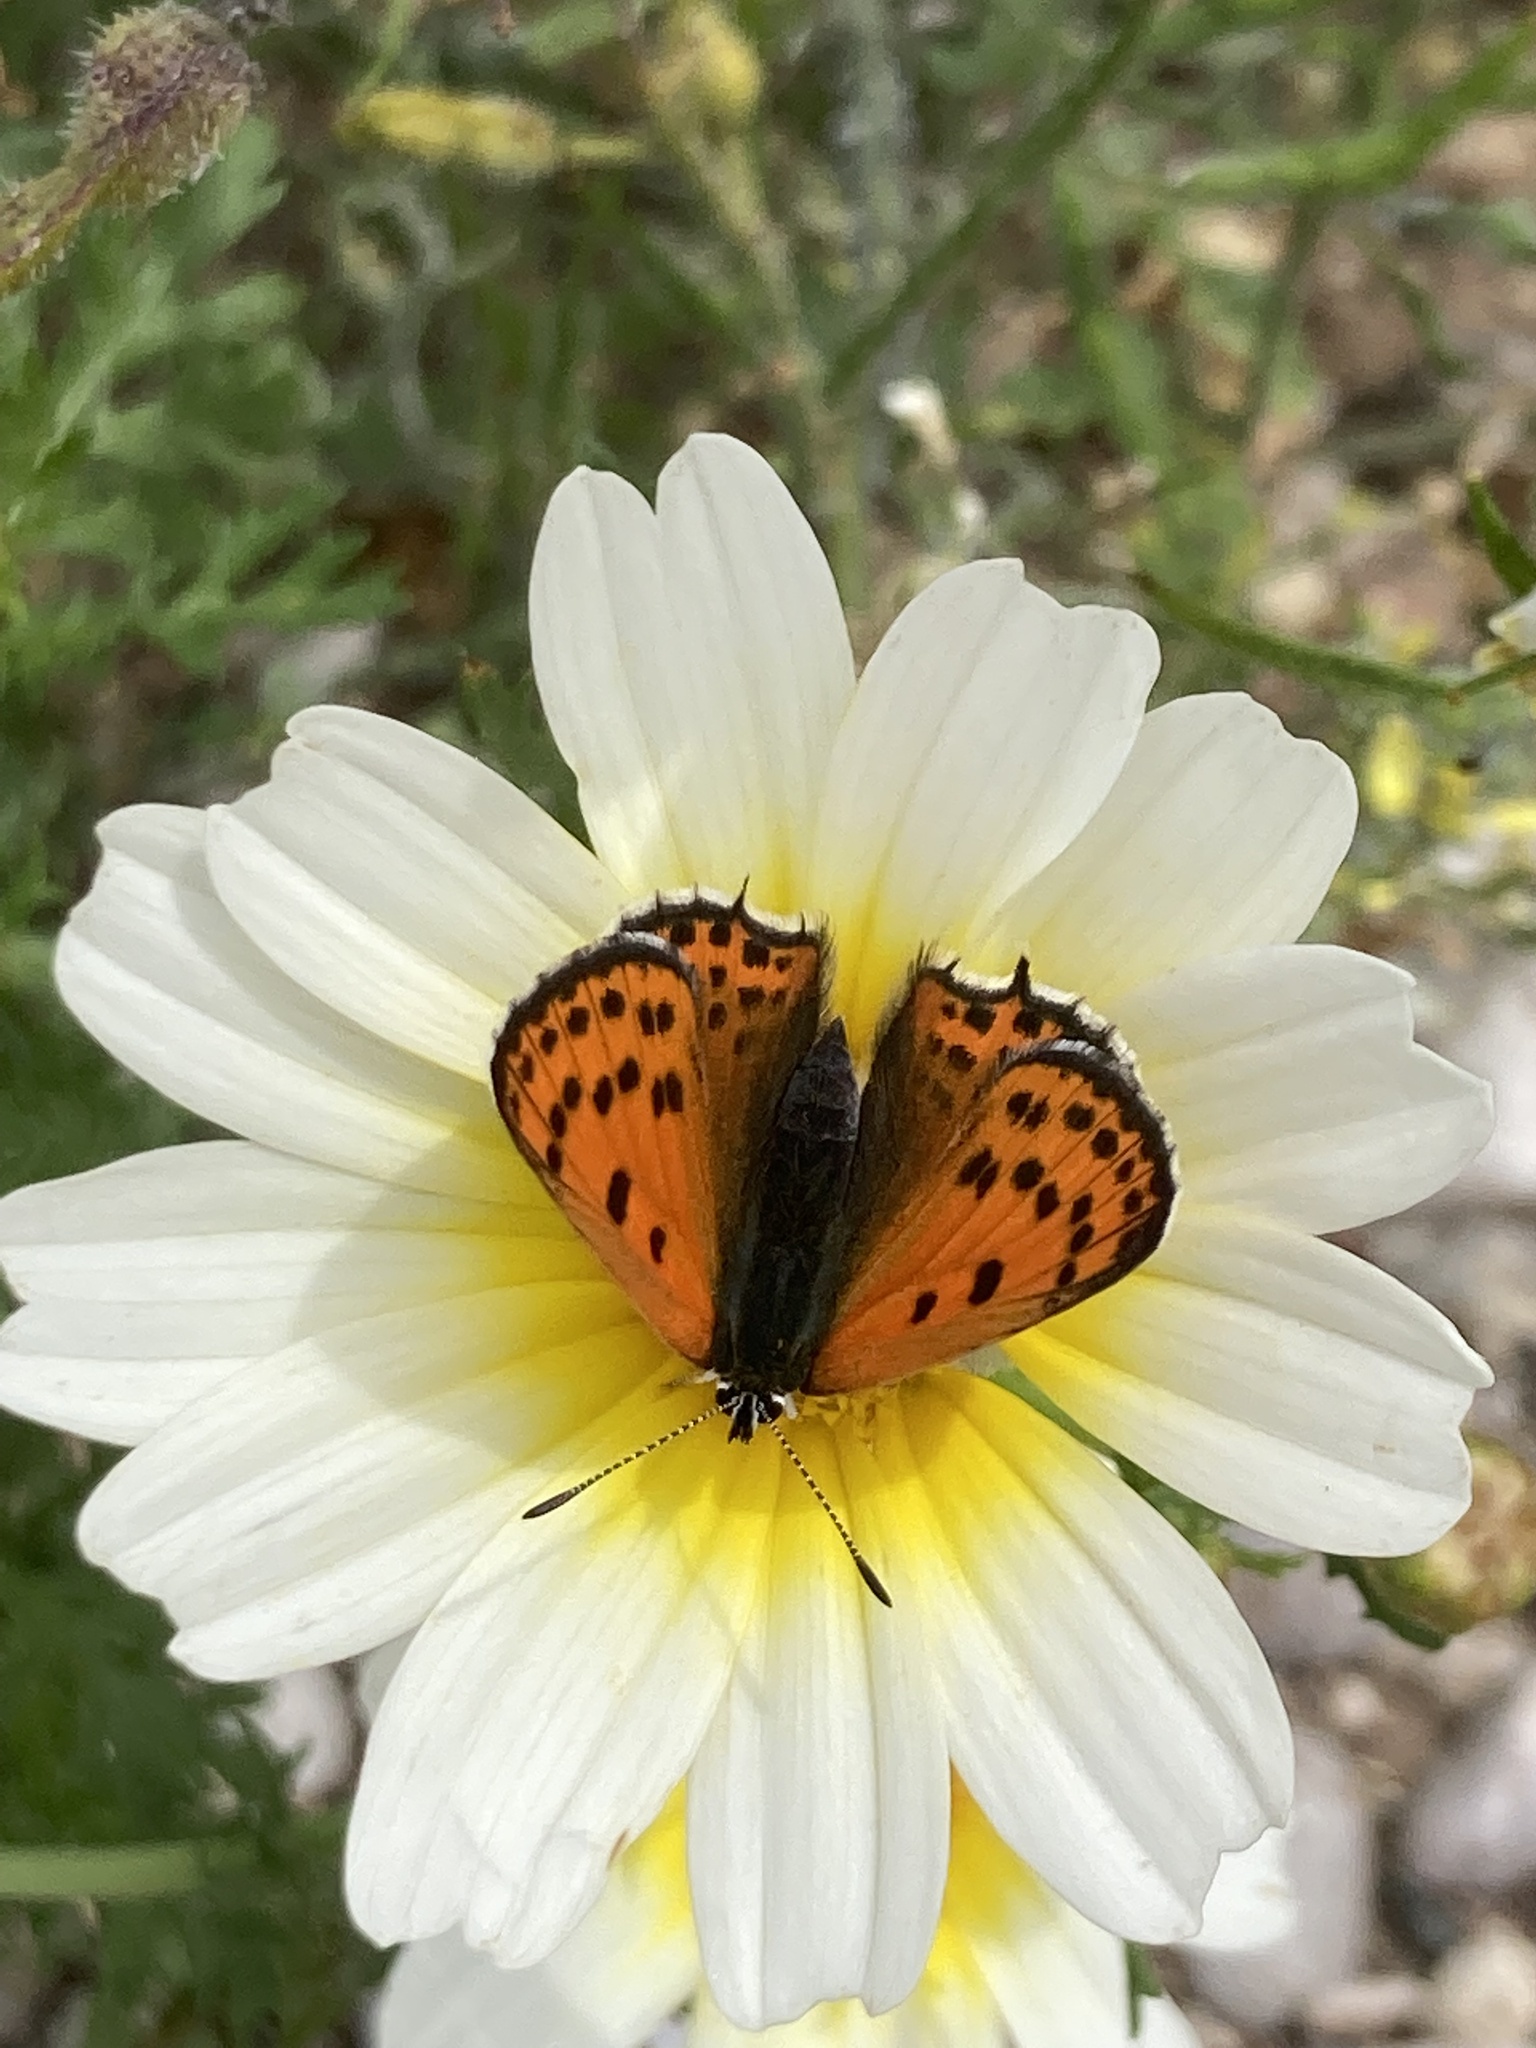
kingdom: Plantae
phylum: Tracheophyta
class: Magnoliopsida
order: Asterales
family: Asteraceae
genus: Glebionis
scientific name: Glebionis coronaria
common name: Crowndaisy
